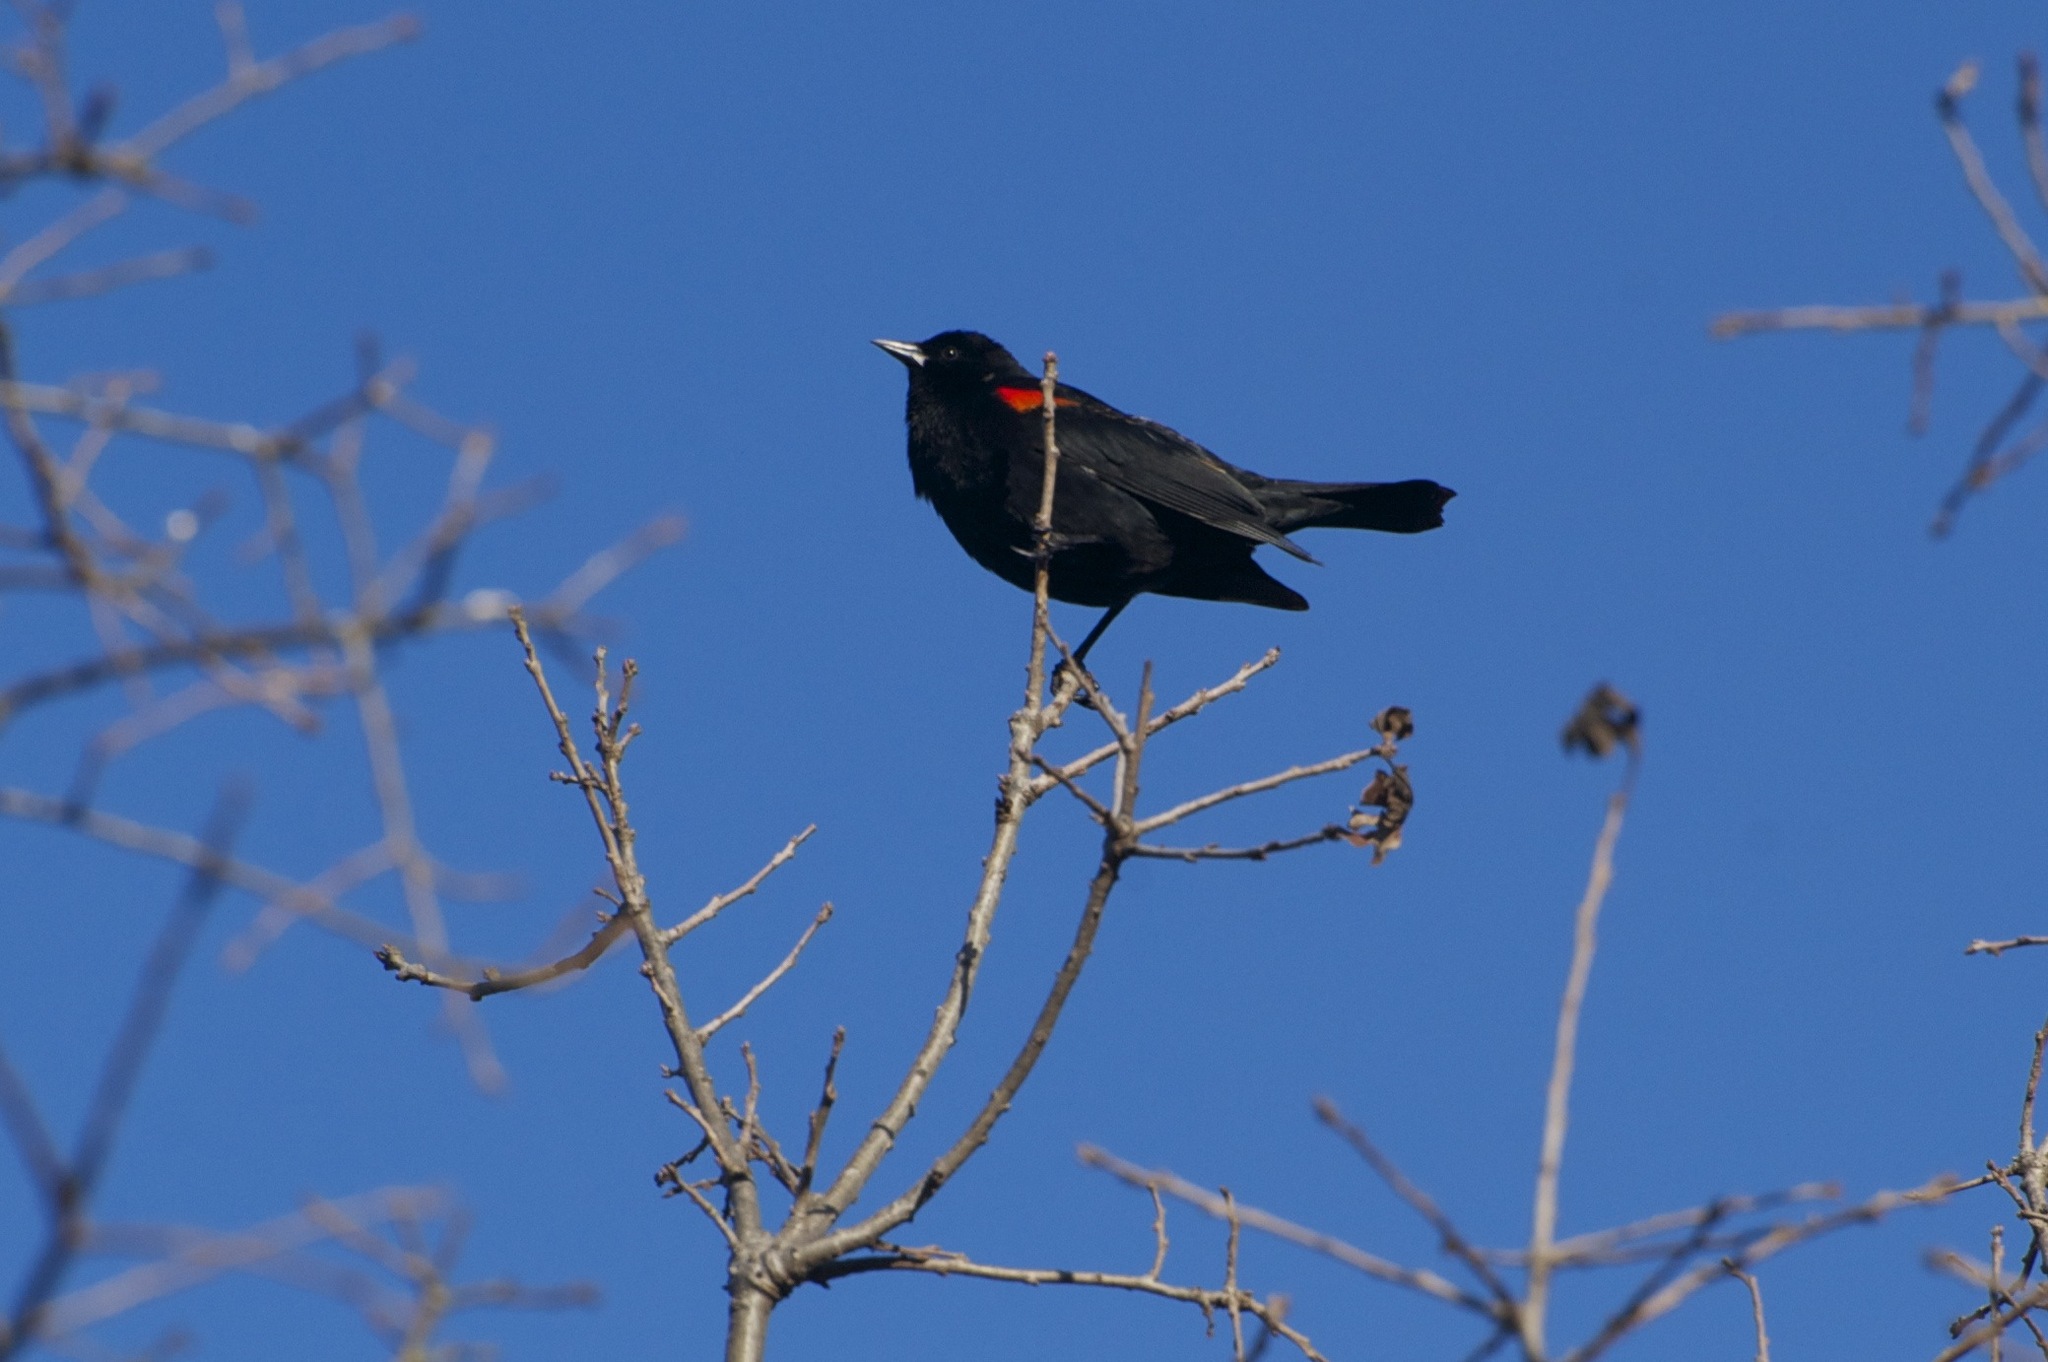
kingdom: Animalia
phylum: Chordata
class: Aves
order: Passeriformes
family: Icteridae
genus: Agelaius
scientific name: Agelaius phoeniceus
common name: Red-winged blackbird
